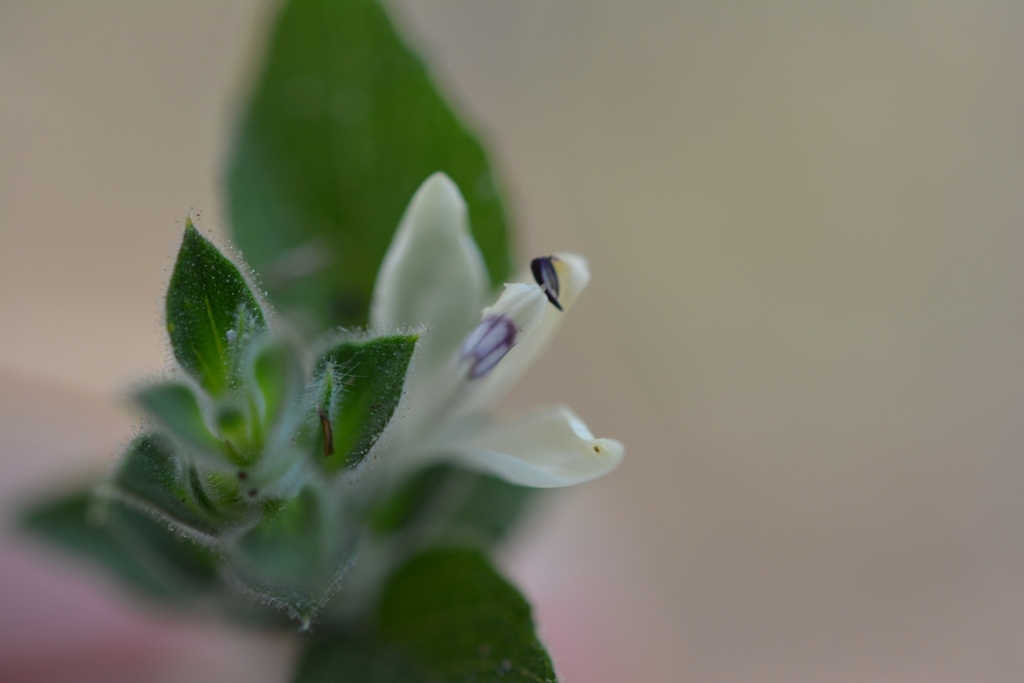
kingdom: Plantae
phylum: Tracheophyta
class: Magnoliopsida
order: Lamiales
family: Acanthaceae
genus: Carlowrightia
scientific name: Carlowrightia arizonica
